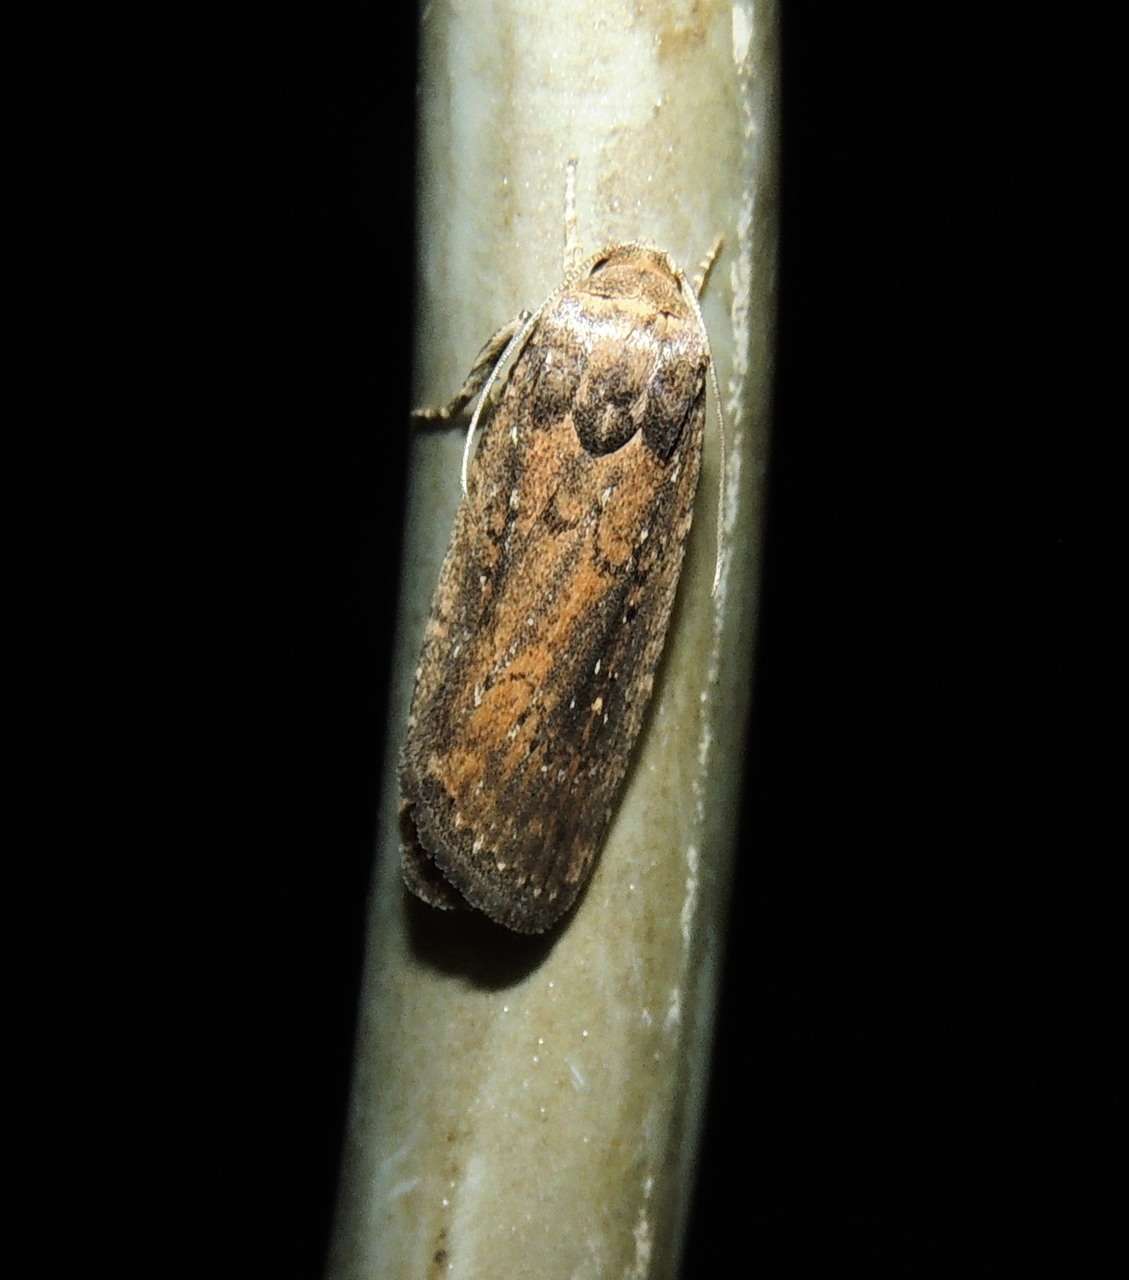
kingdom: Animalia
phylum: Arthropoda
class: Insecta
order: Lepidoptera
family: Noctuidae
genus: Athetis
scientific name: Athetis tenuis
